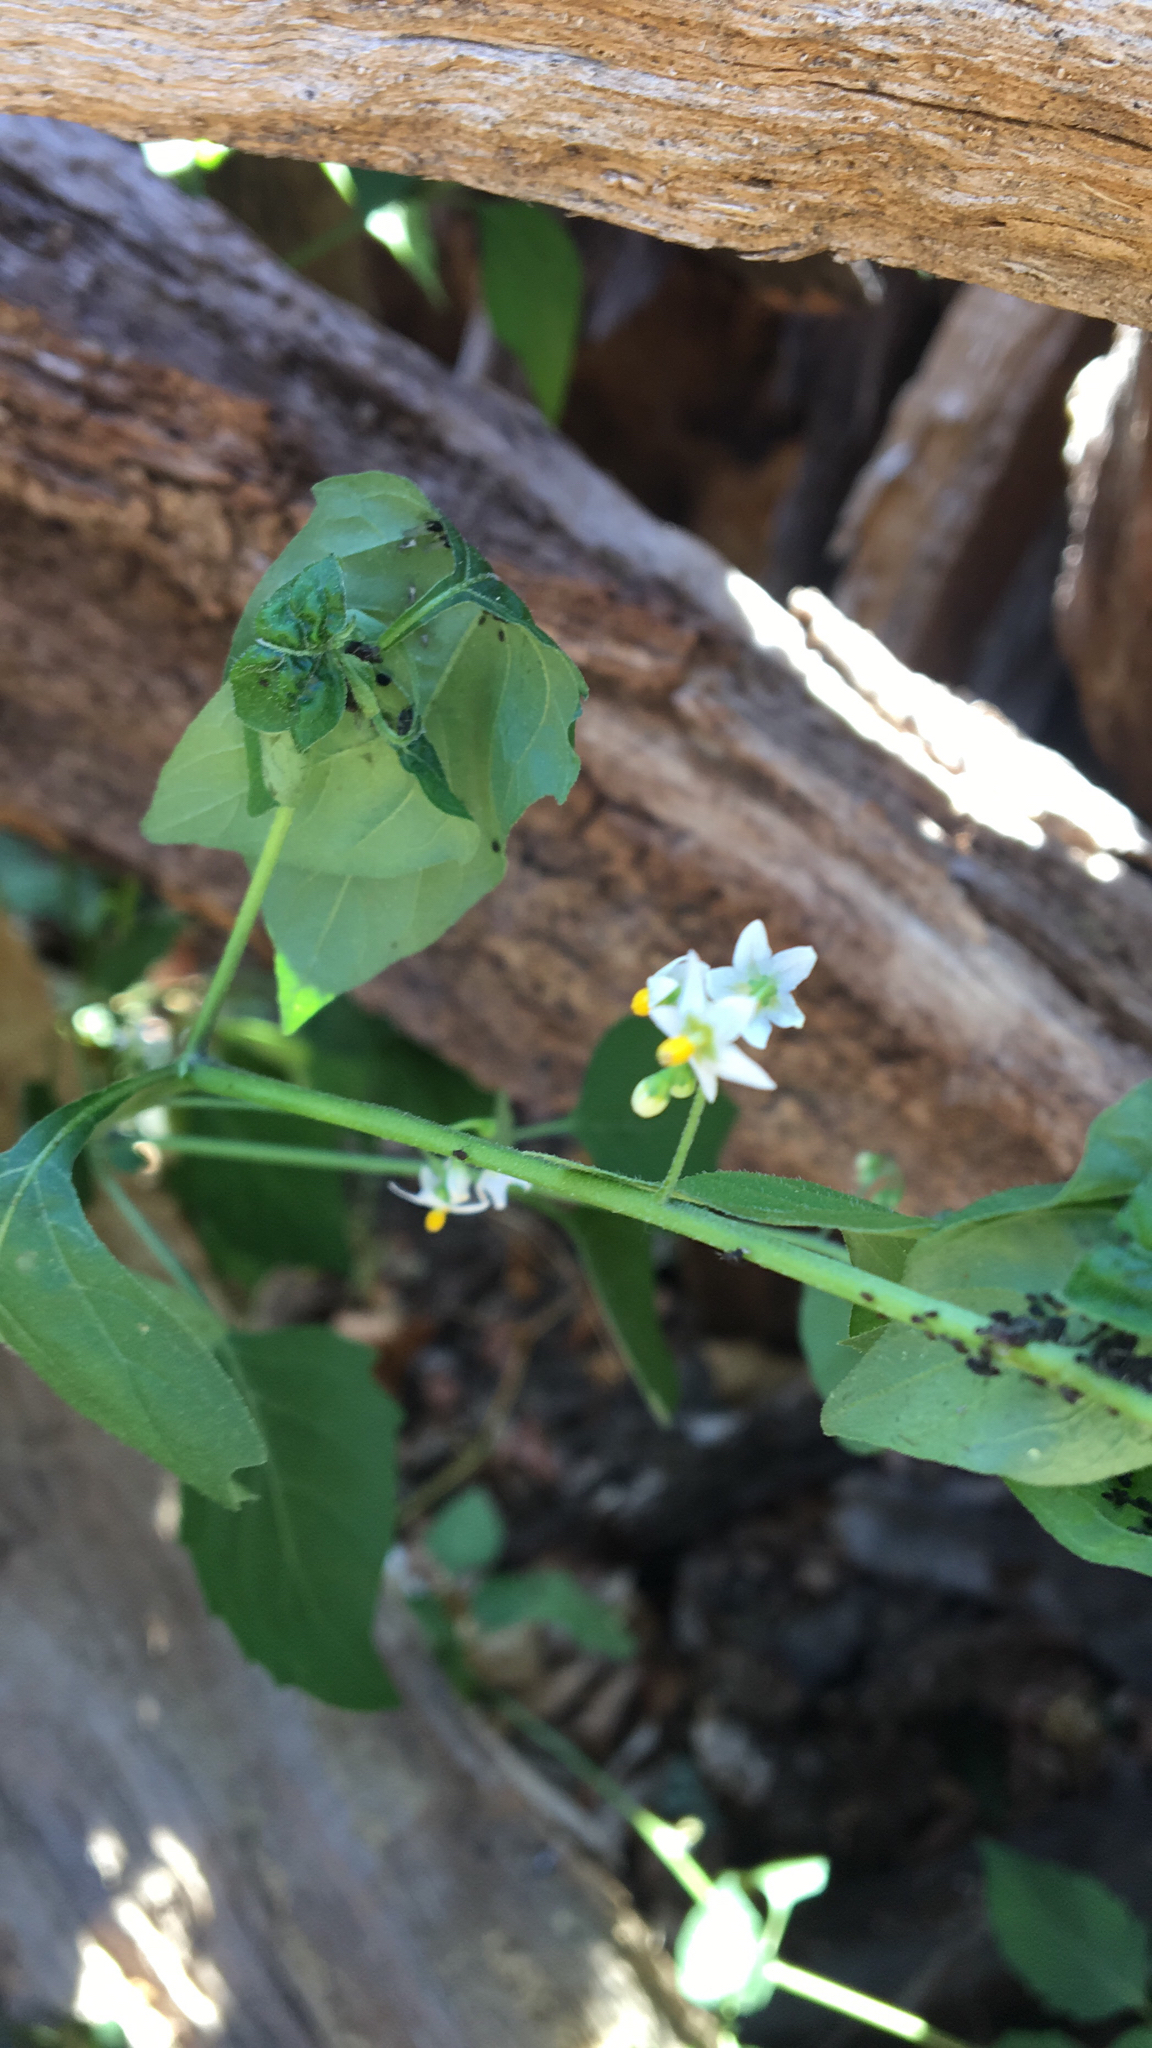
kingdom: Plantae
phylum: Tracheophyta
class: Magnoliopsida
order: Solanales
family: Solanaceae
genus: Solanum
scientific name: Solanum americanum
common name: American black nightshade
